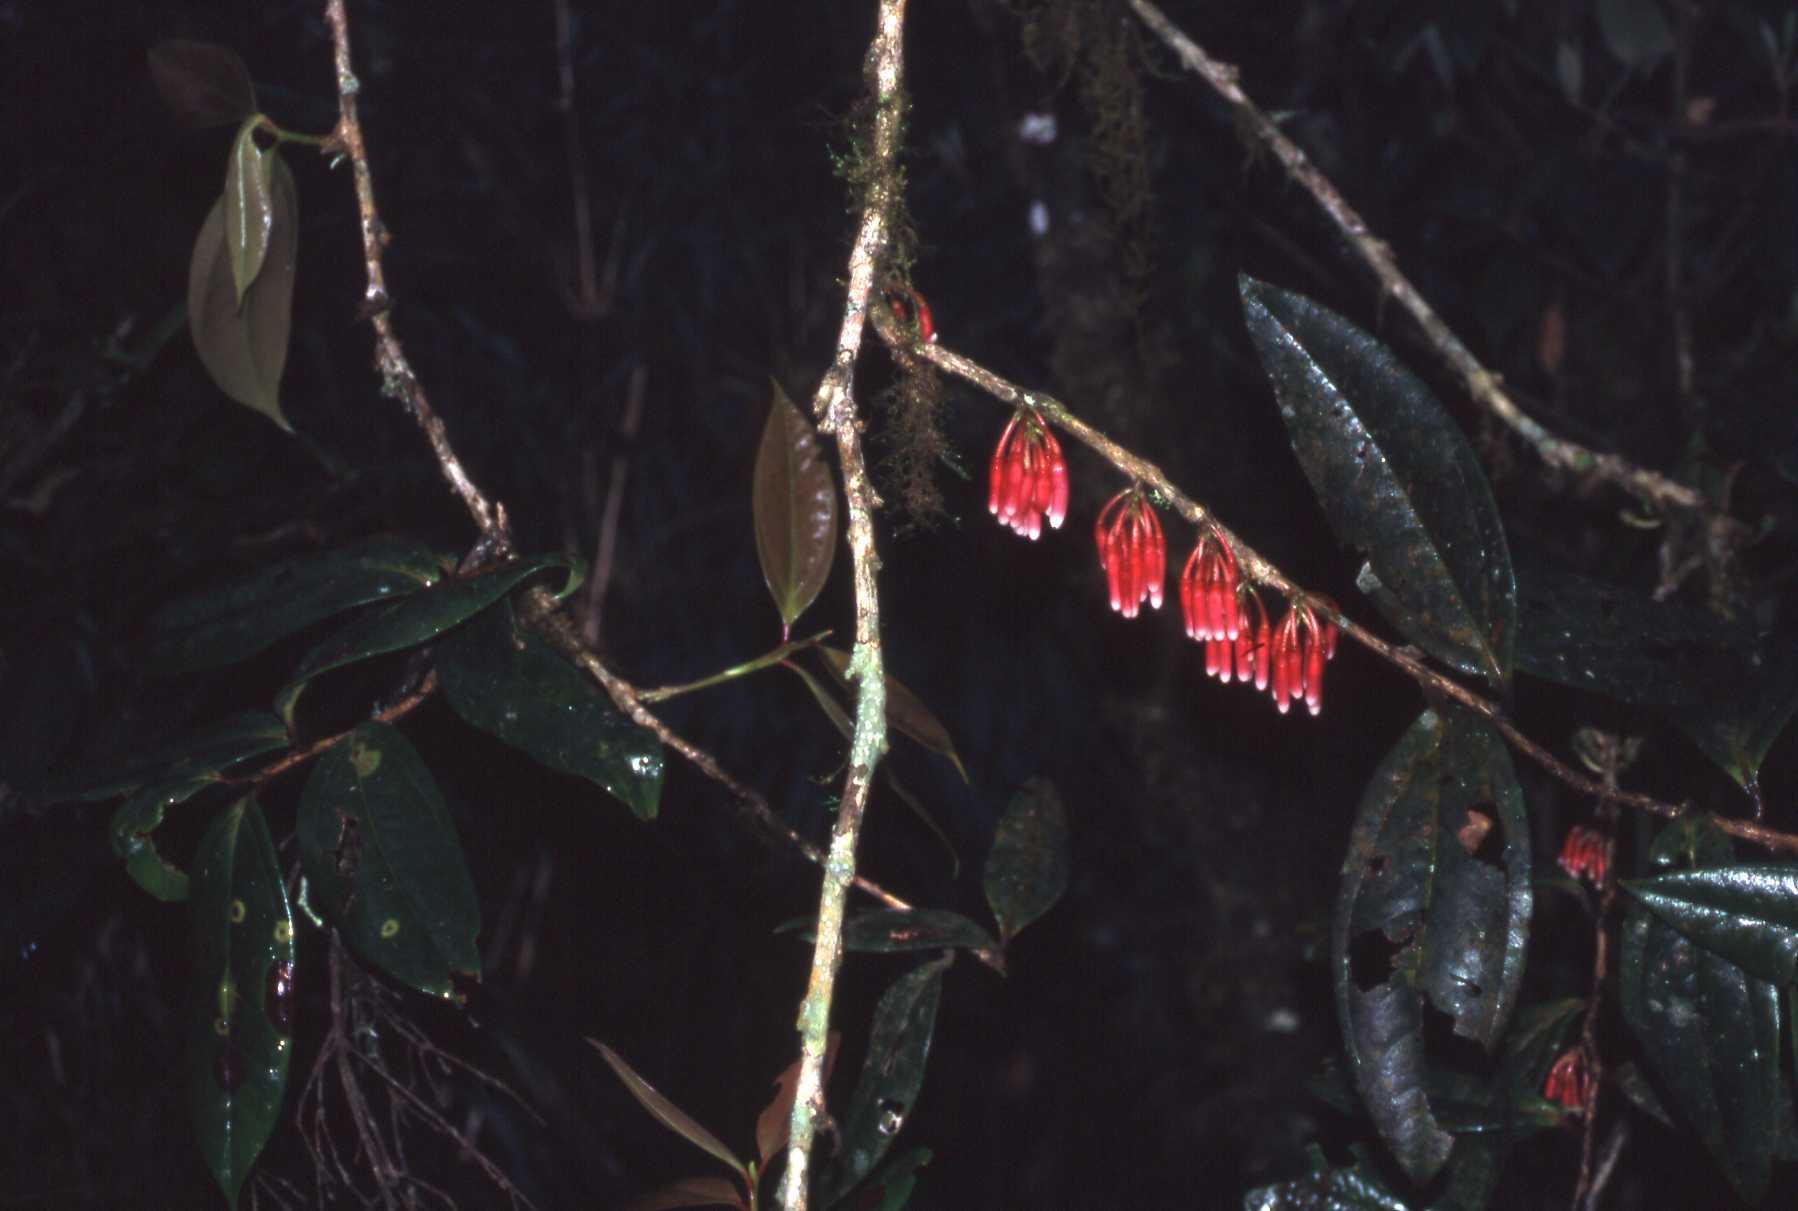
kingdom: Plantae
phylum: Tracheophyta
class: Magnoliopsida
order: Ericales
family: Ericaceae
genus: Satyria
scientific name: Satyria warszewiczii
